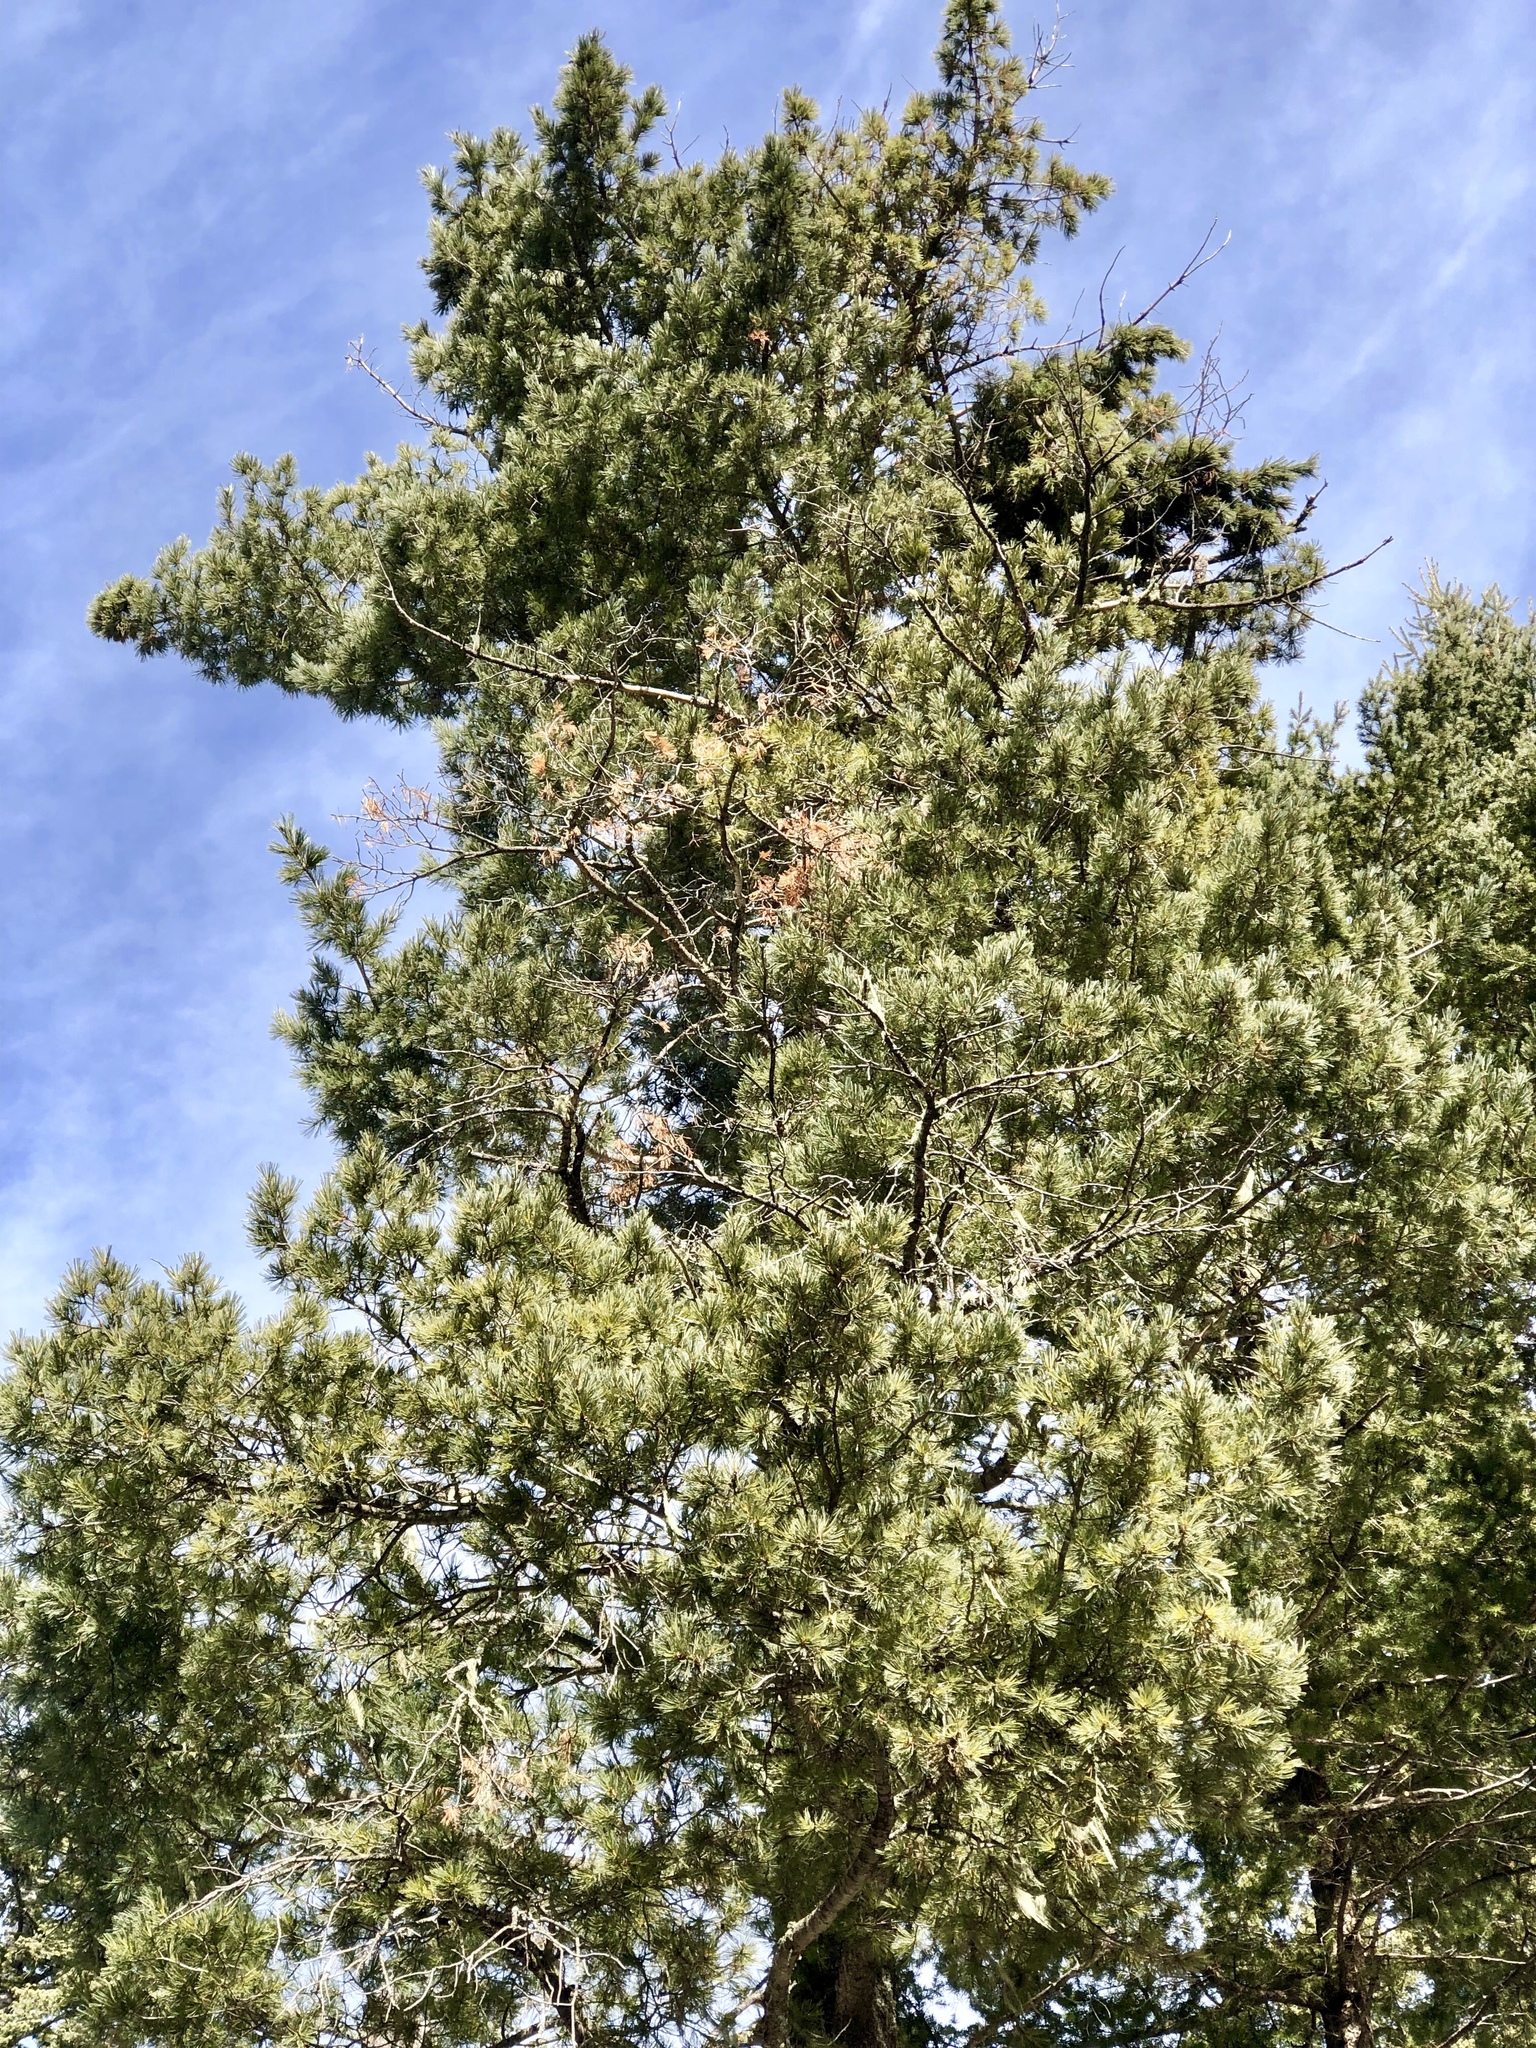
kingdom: Plantae
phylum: Tracheophyta
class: Pinopsida
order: Pinales
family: Pinaceae
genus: Pinus
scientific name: Pinus strobiformis
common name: Southwestern white pine
